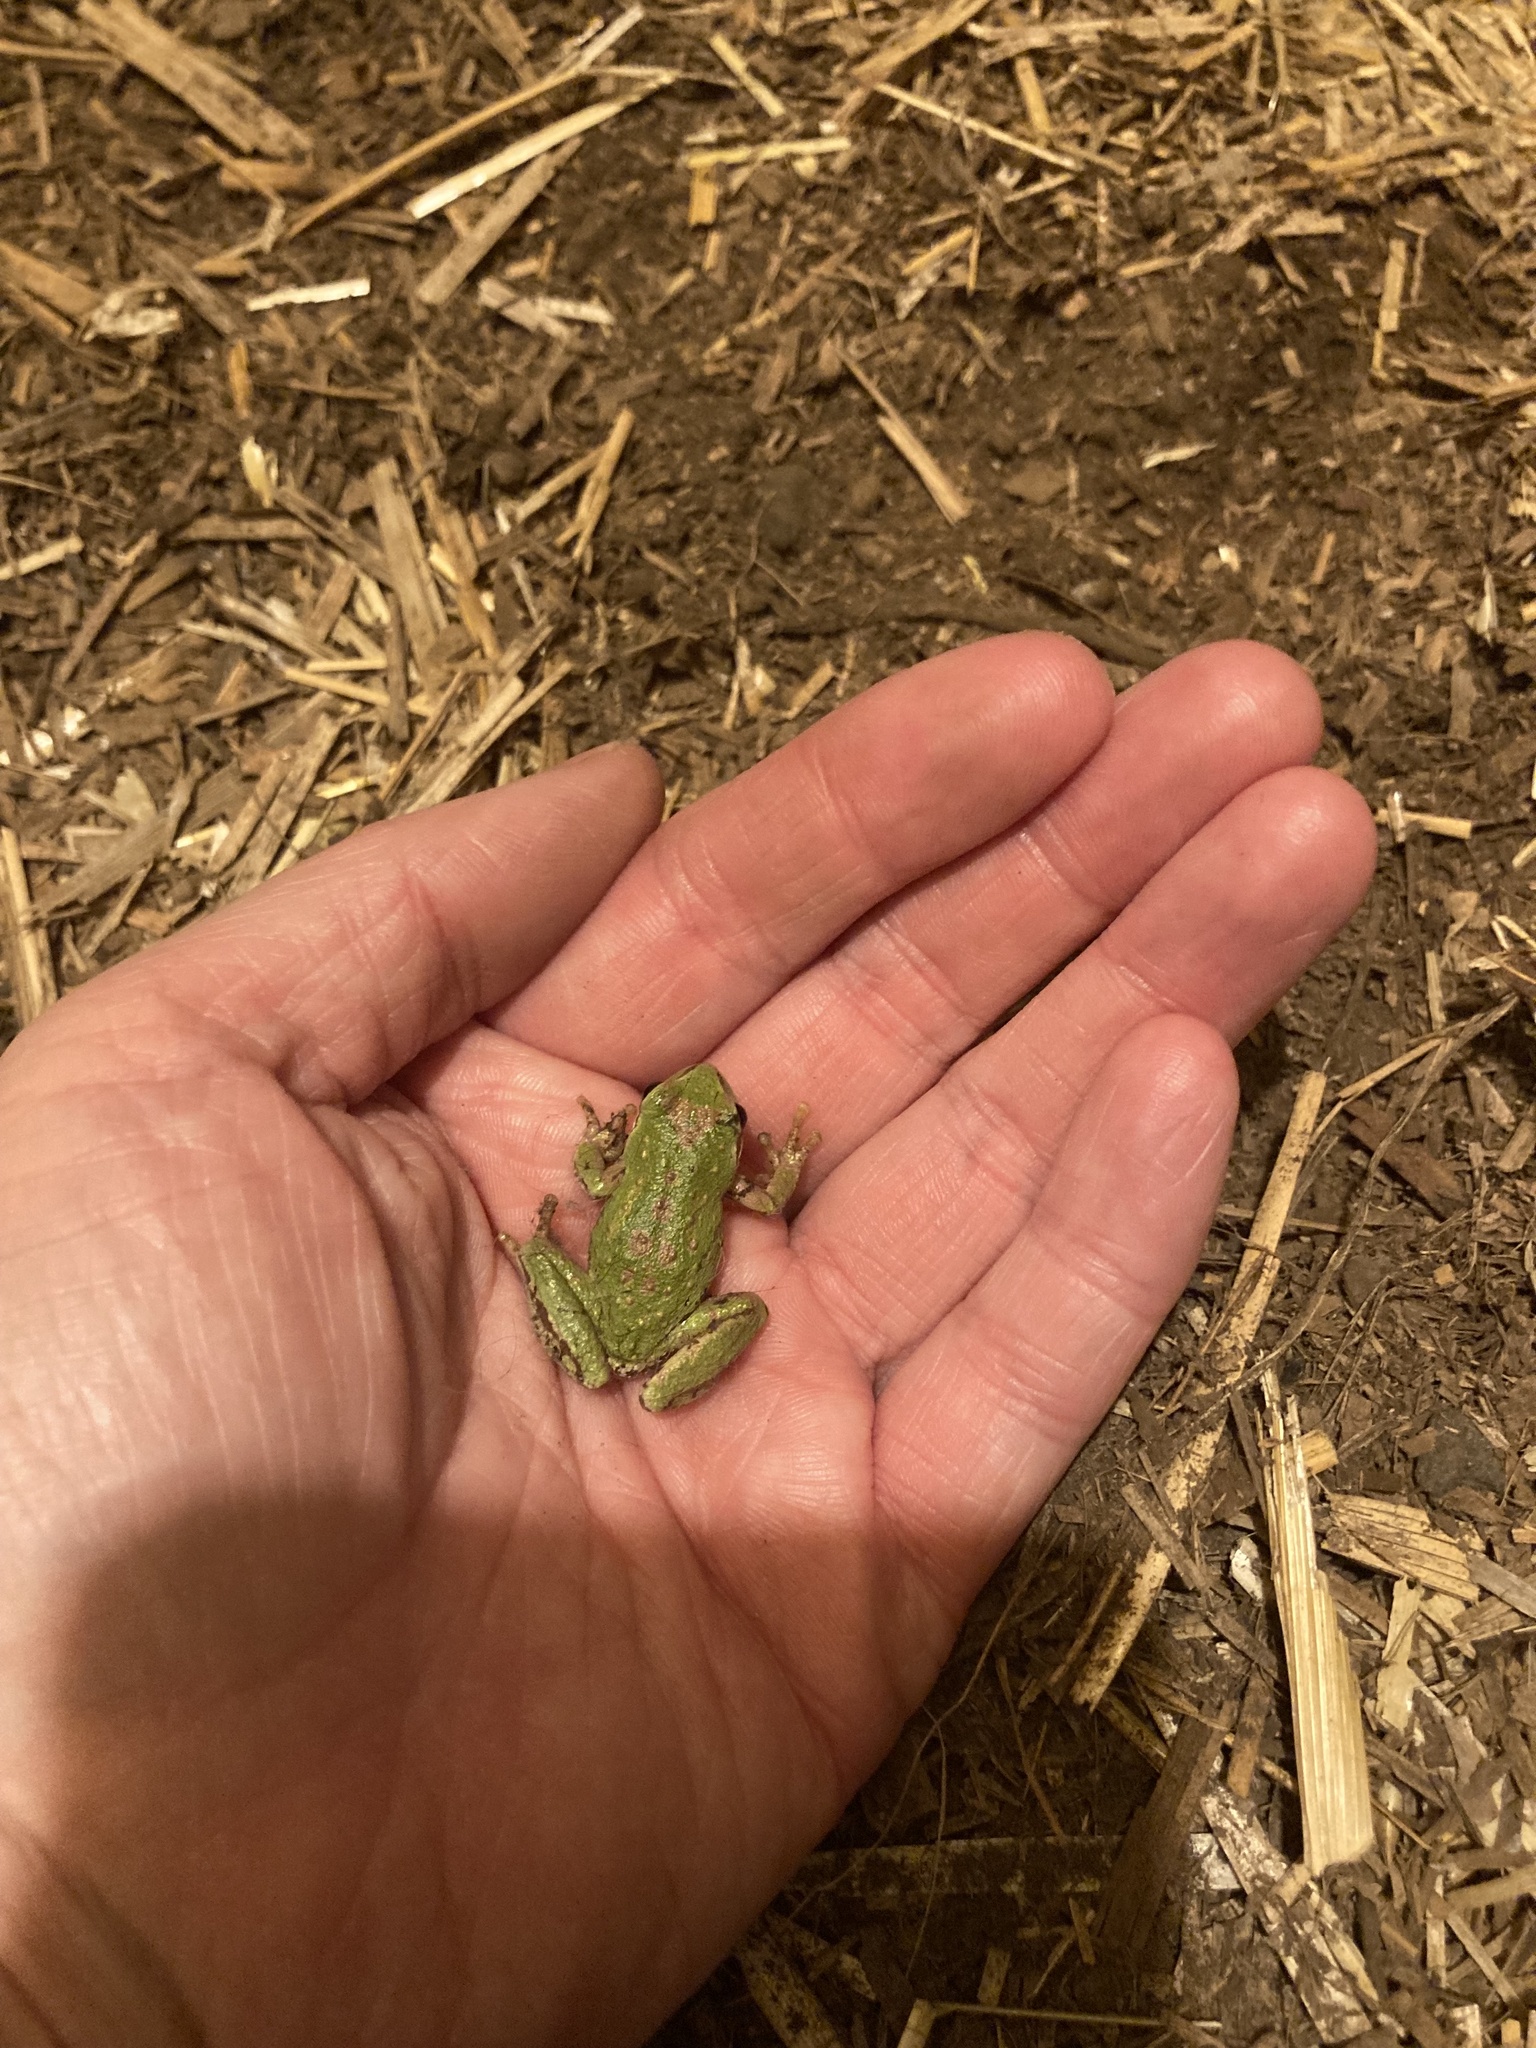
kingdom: Animalia
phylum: Chordata
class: Amphibia
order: Anura
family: Hylidae
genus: Pseudacris
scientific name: Pseudacris regilla
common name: Pacific chorus frog
